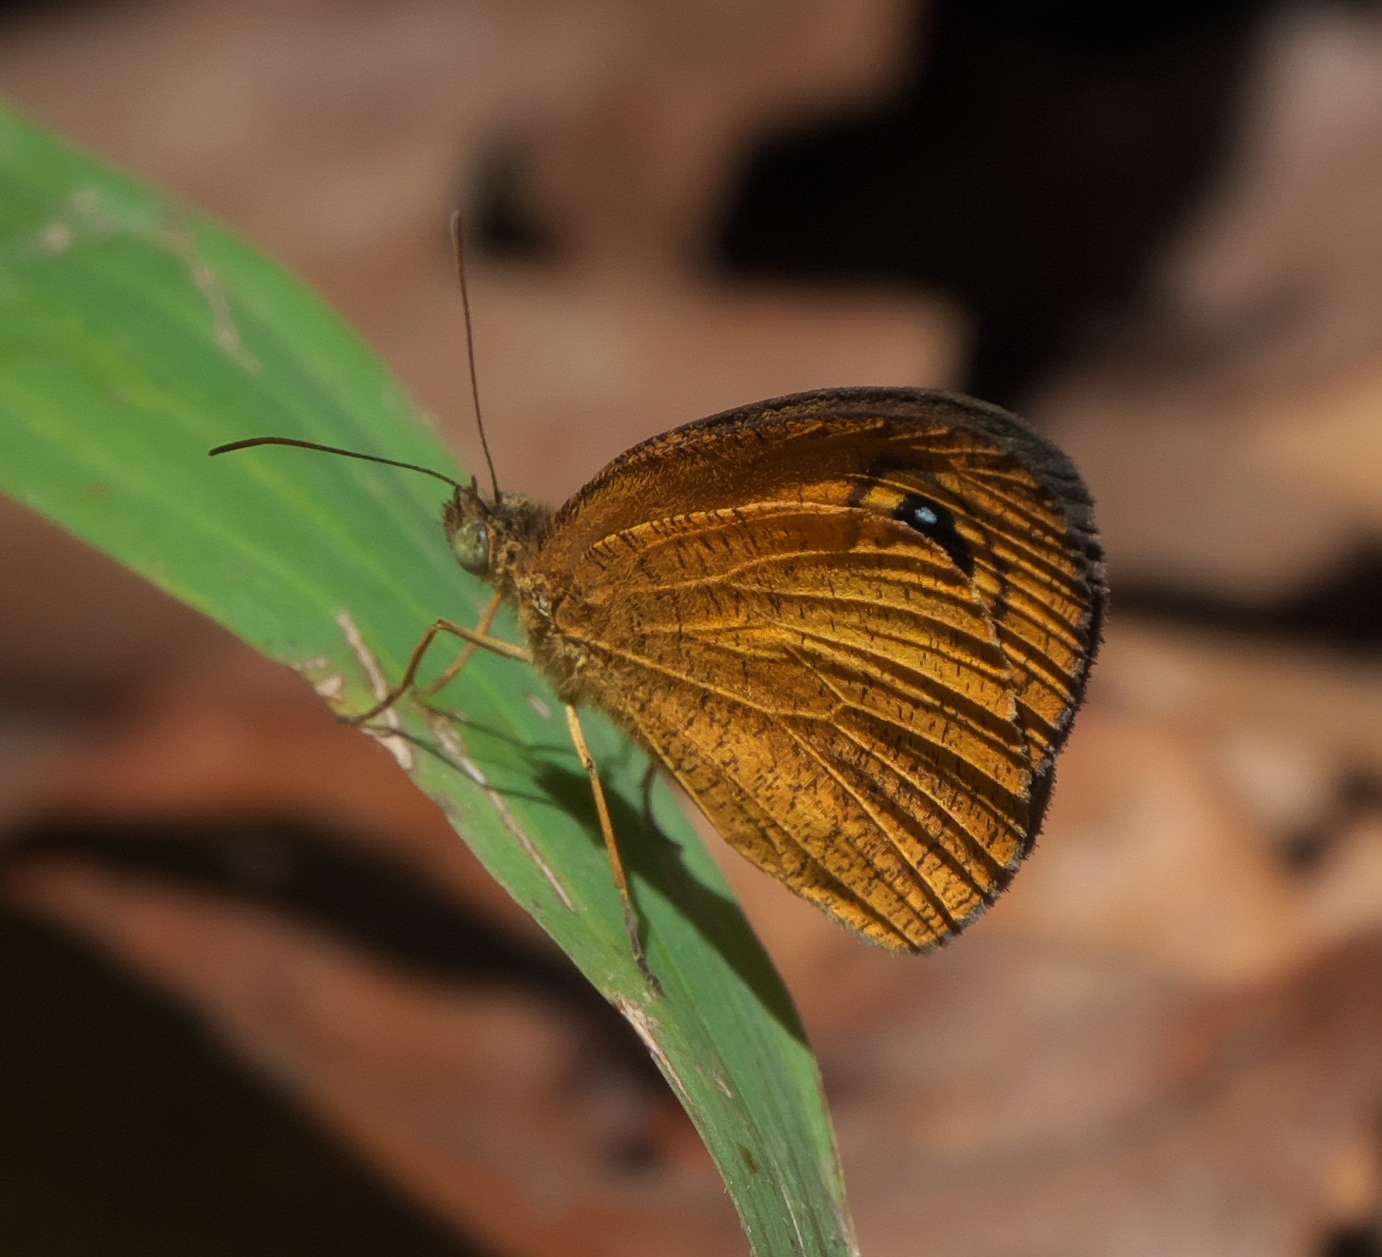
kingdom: Animalia
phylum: Arthropoda
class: Insecta
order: Lepidoptera
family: Nymphalidae
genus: Ypthima
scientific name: Ypthima sesara
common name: Common fijian ringlet
